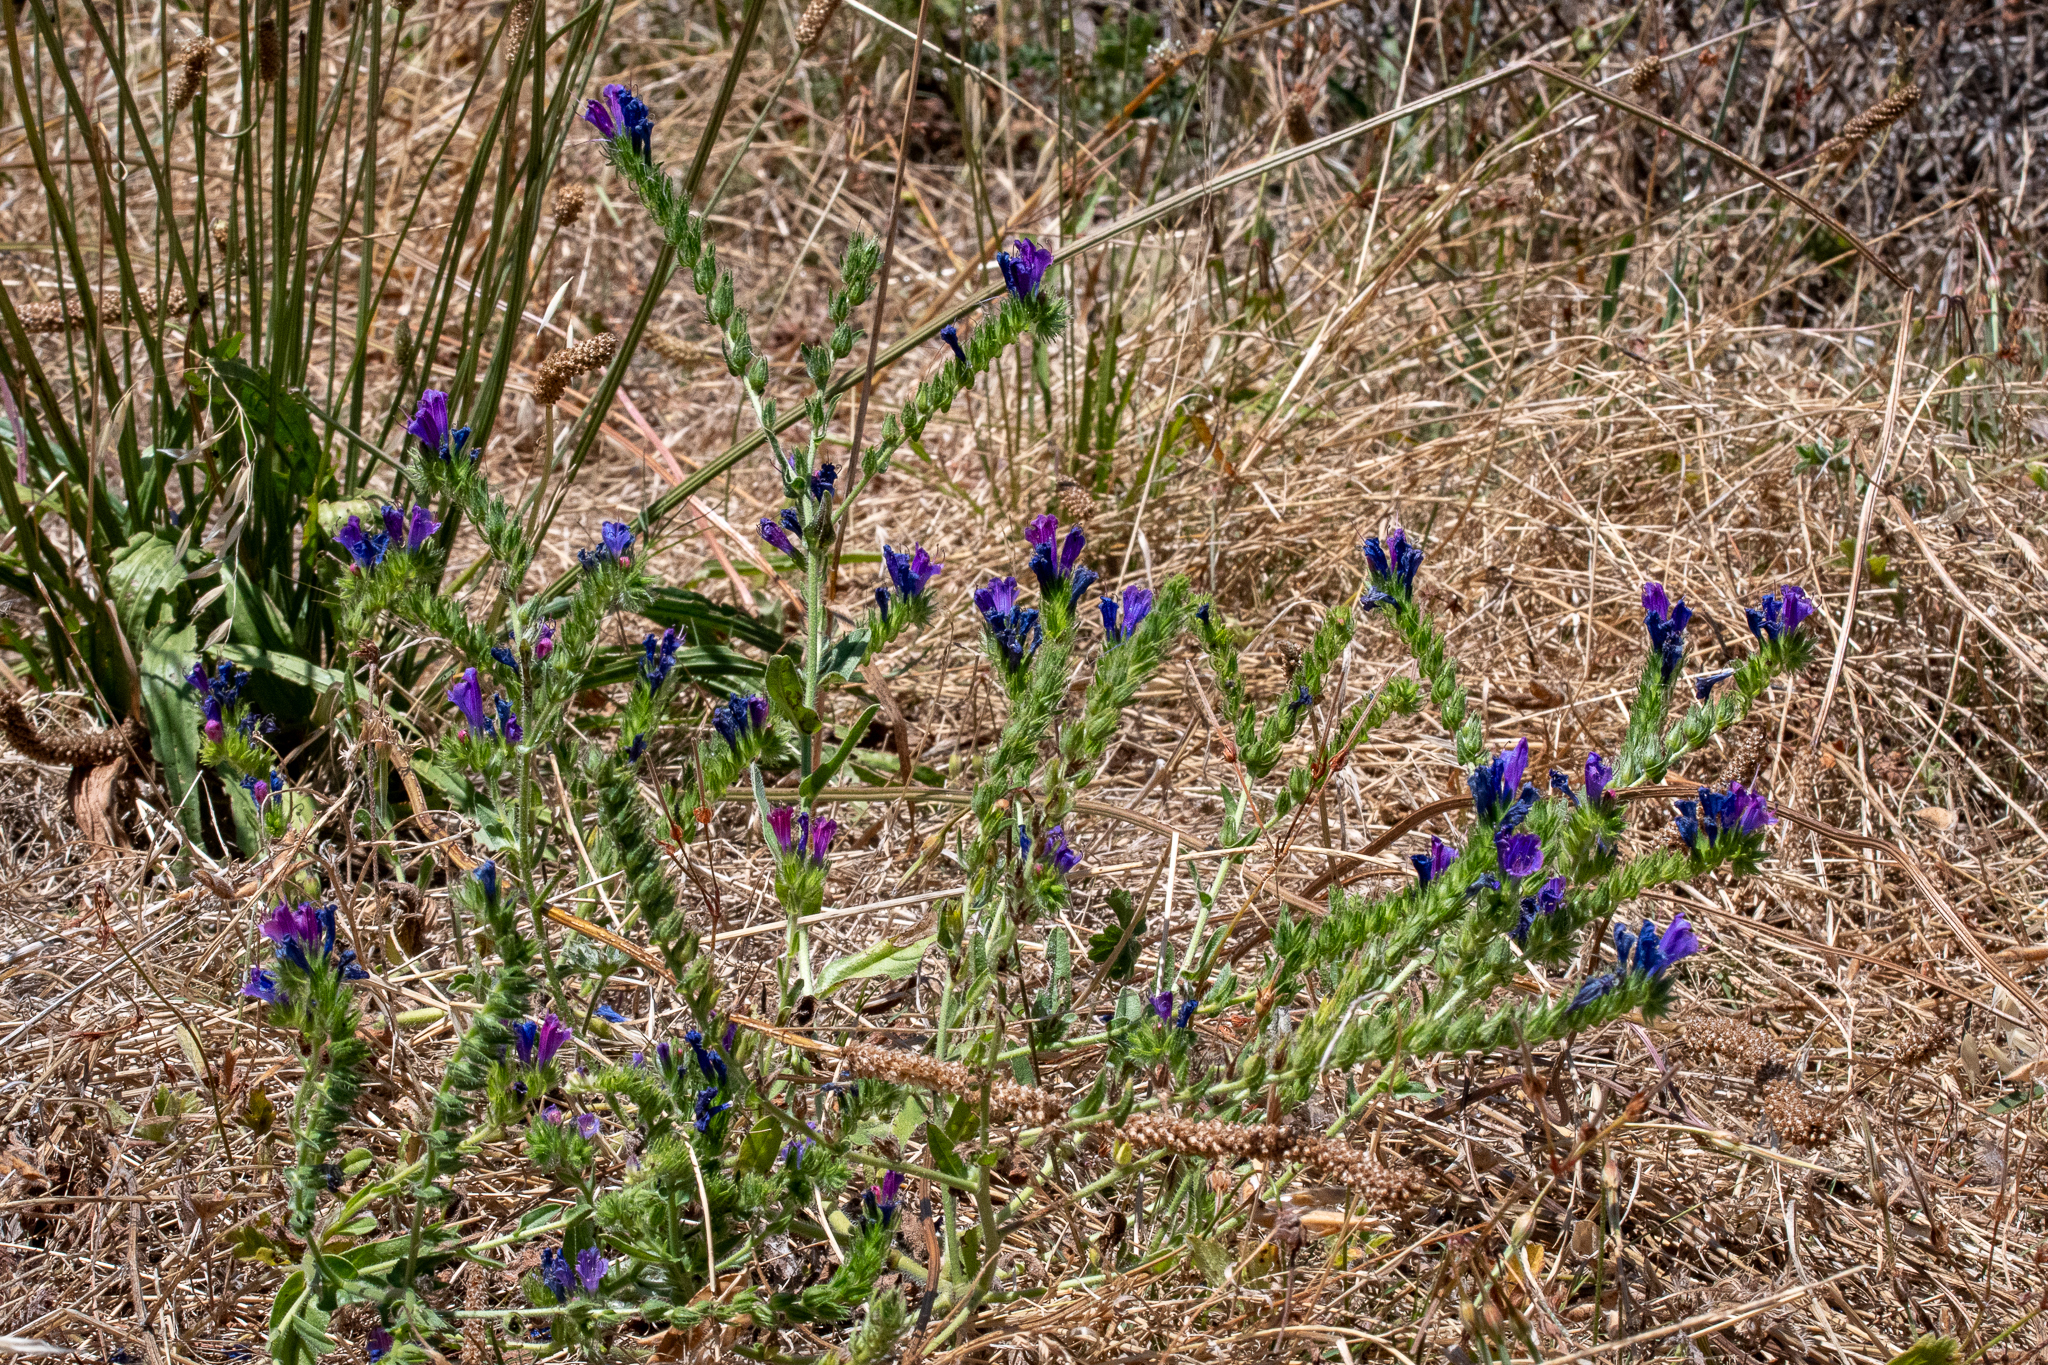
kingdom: Plantae
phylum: Tracheophyta
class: Magnoliopsida
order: Boraginales
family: Boraginaceae
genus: Echium
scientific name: Echium plantagineum
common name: Purple viper's-bugloss
